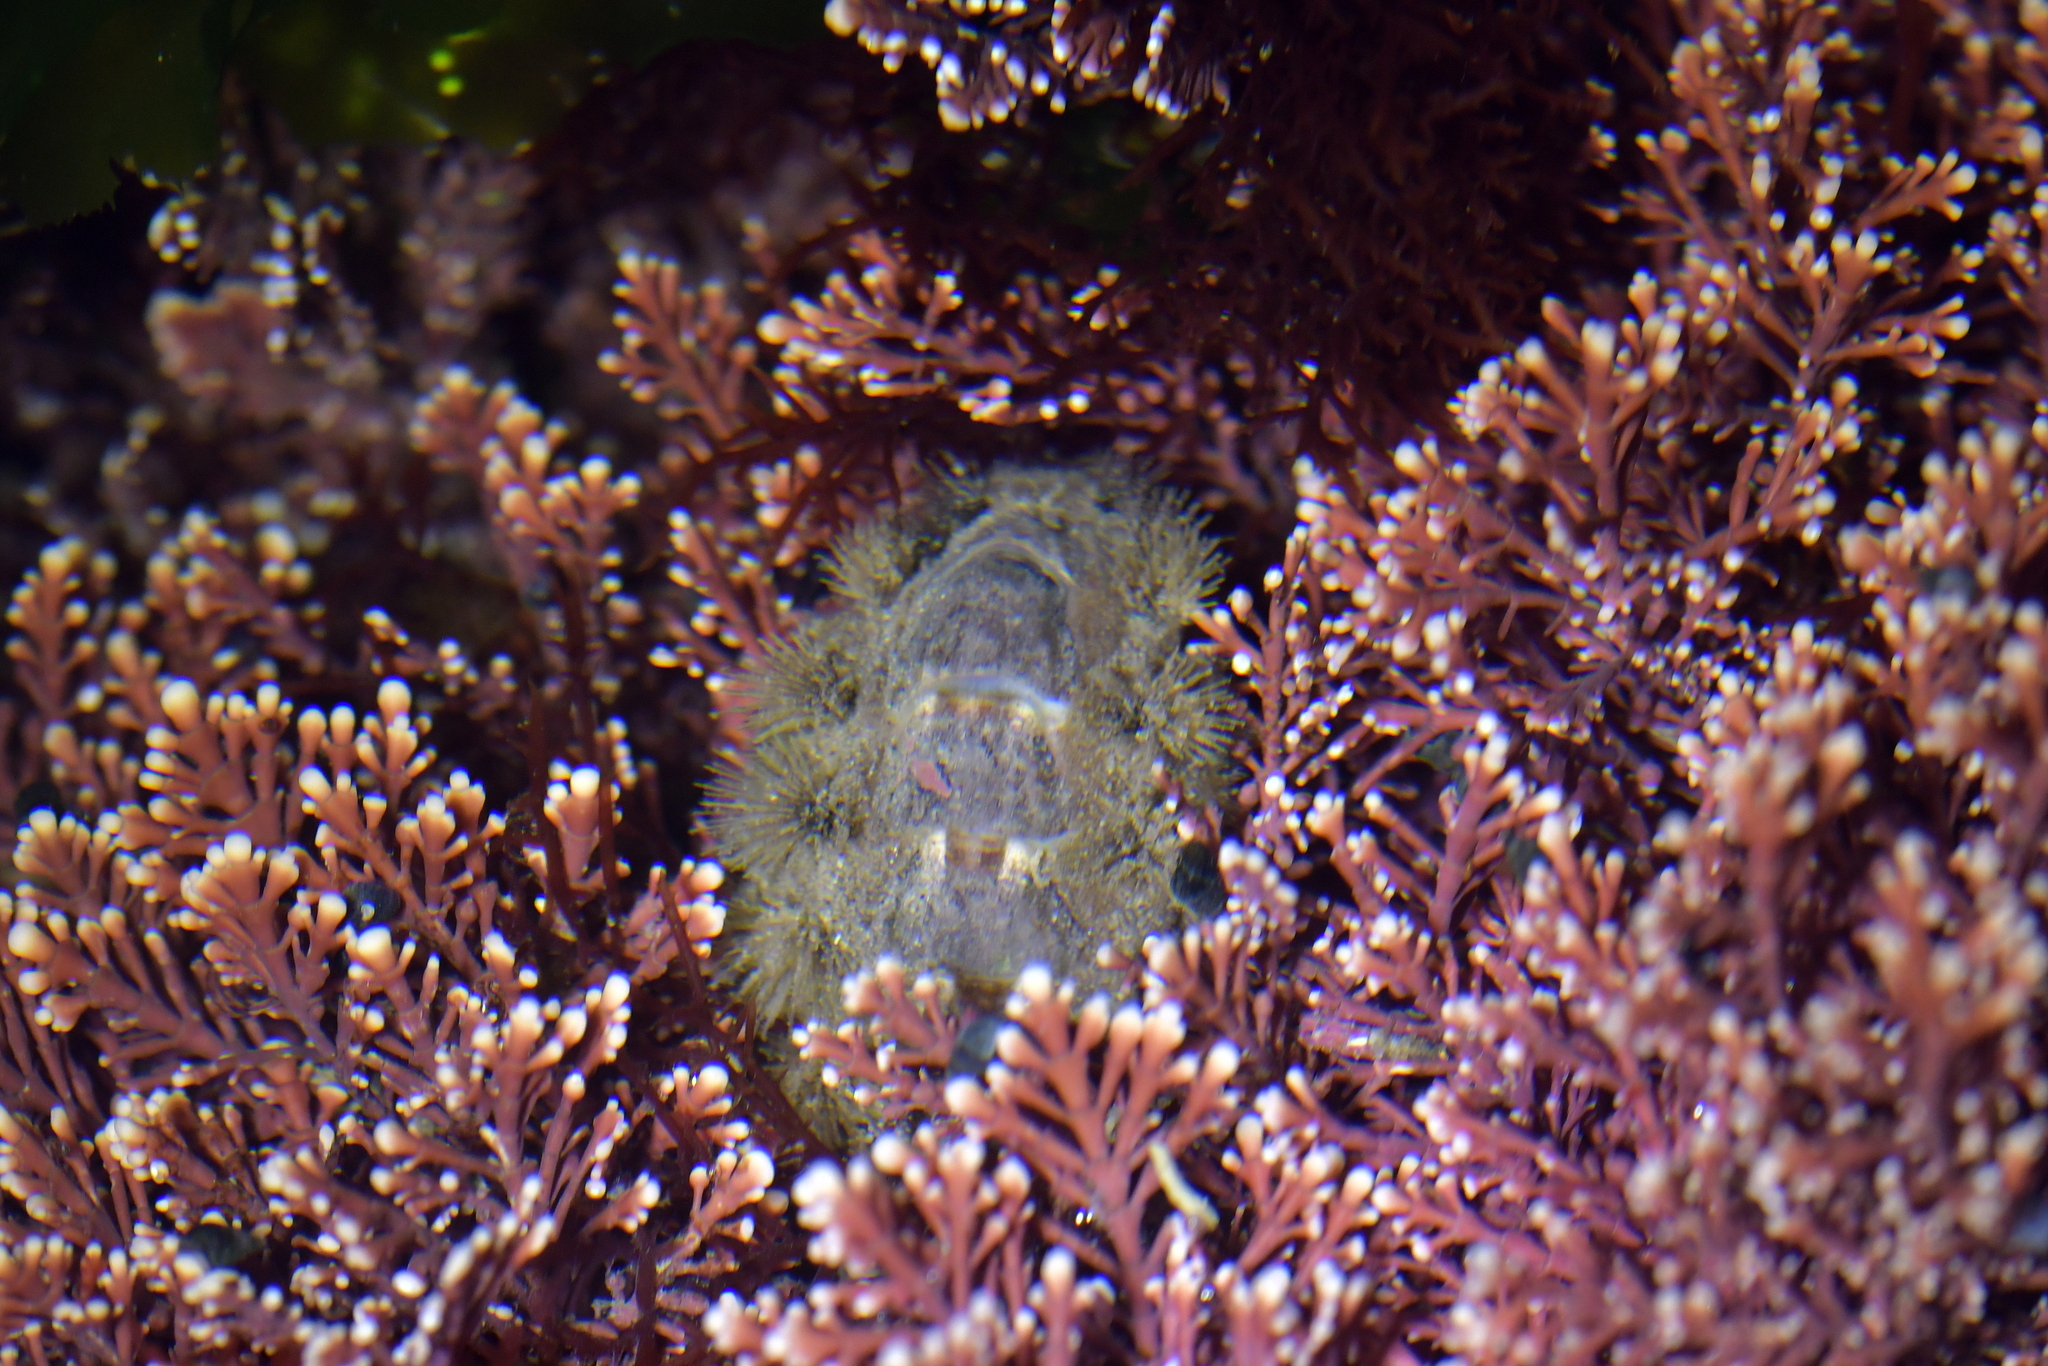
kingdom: Animalia
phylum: Mollusca
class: Polyplacophora
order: Chitonida
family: Acanthochitonidae
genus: Acanthochitona
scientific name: Acanthochitona zelandica
